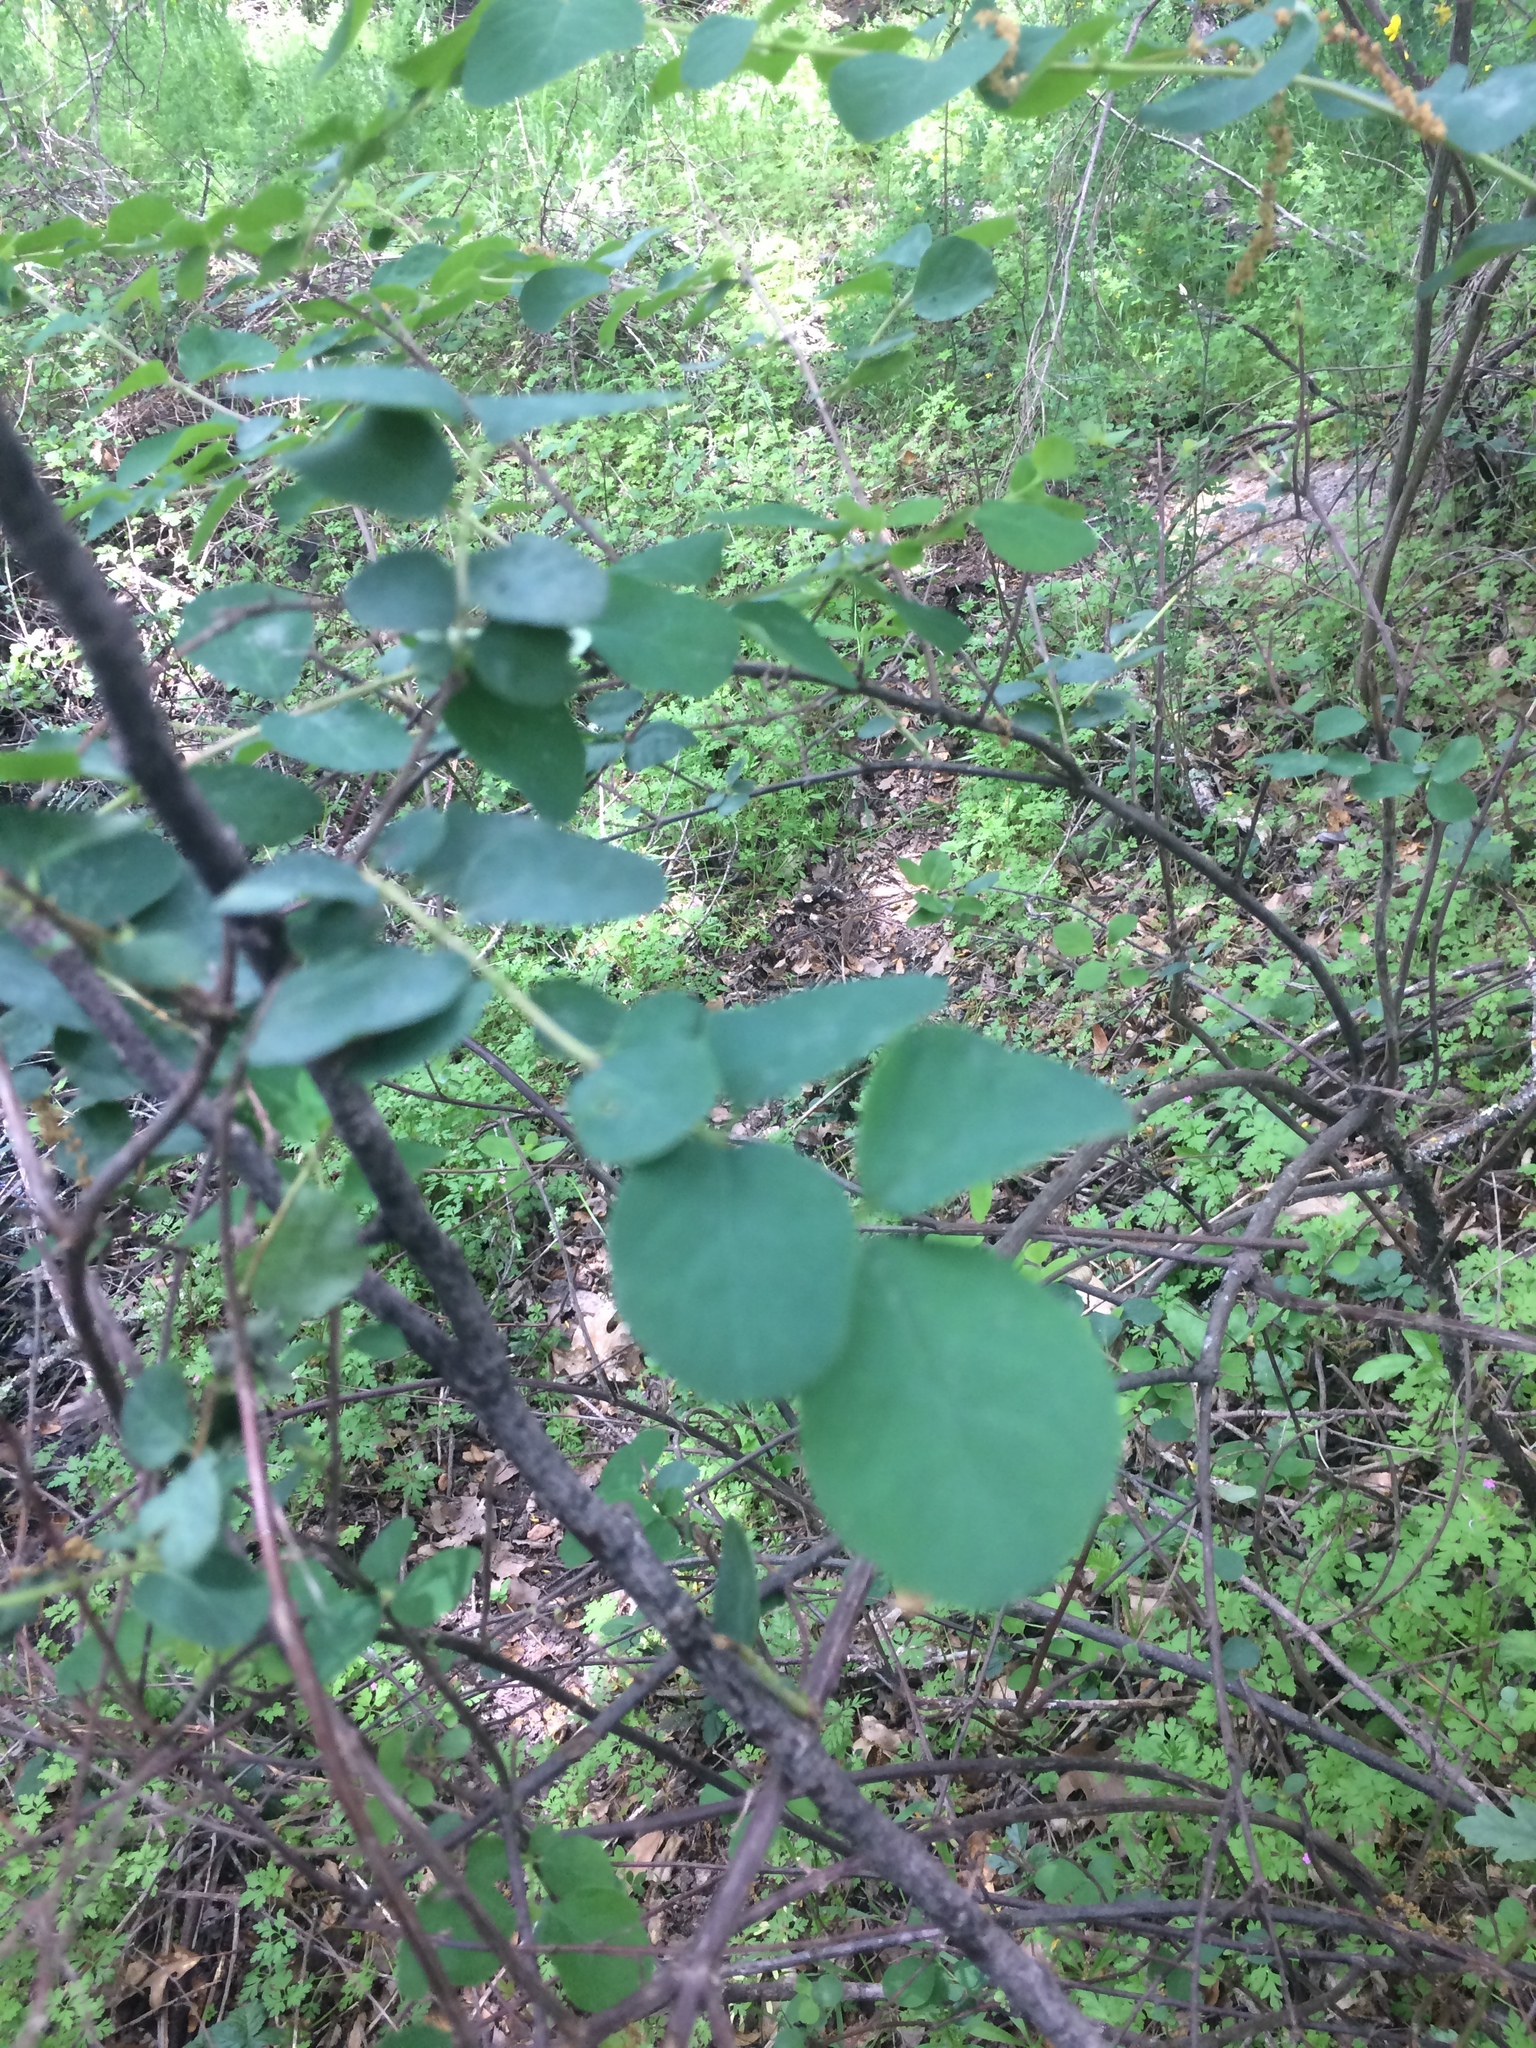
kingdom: Plantae
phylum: Tracheophyta
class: Magnoliopsida
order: Dipsacales
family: Caprifoliaceae
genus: Lonicera
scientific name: Lonicera hispidula
